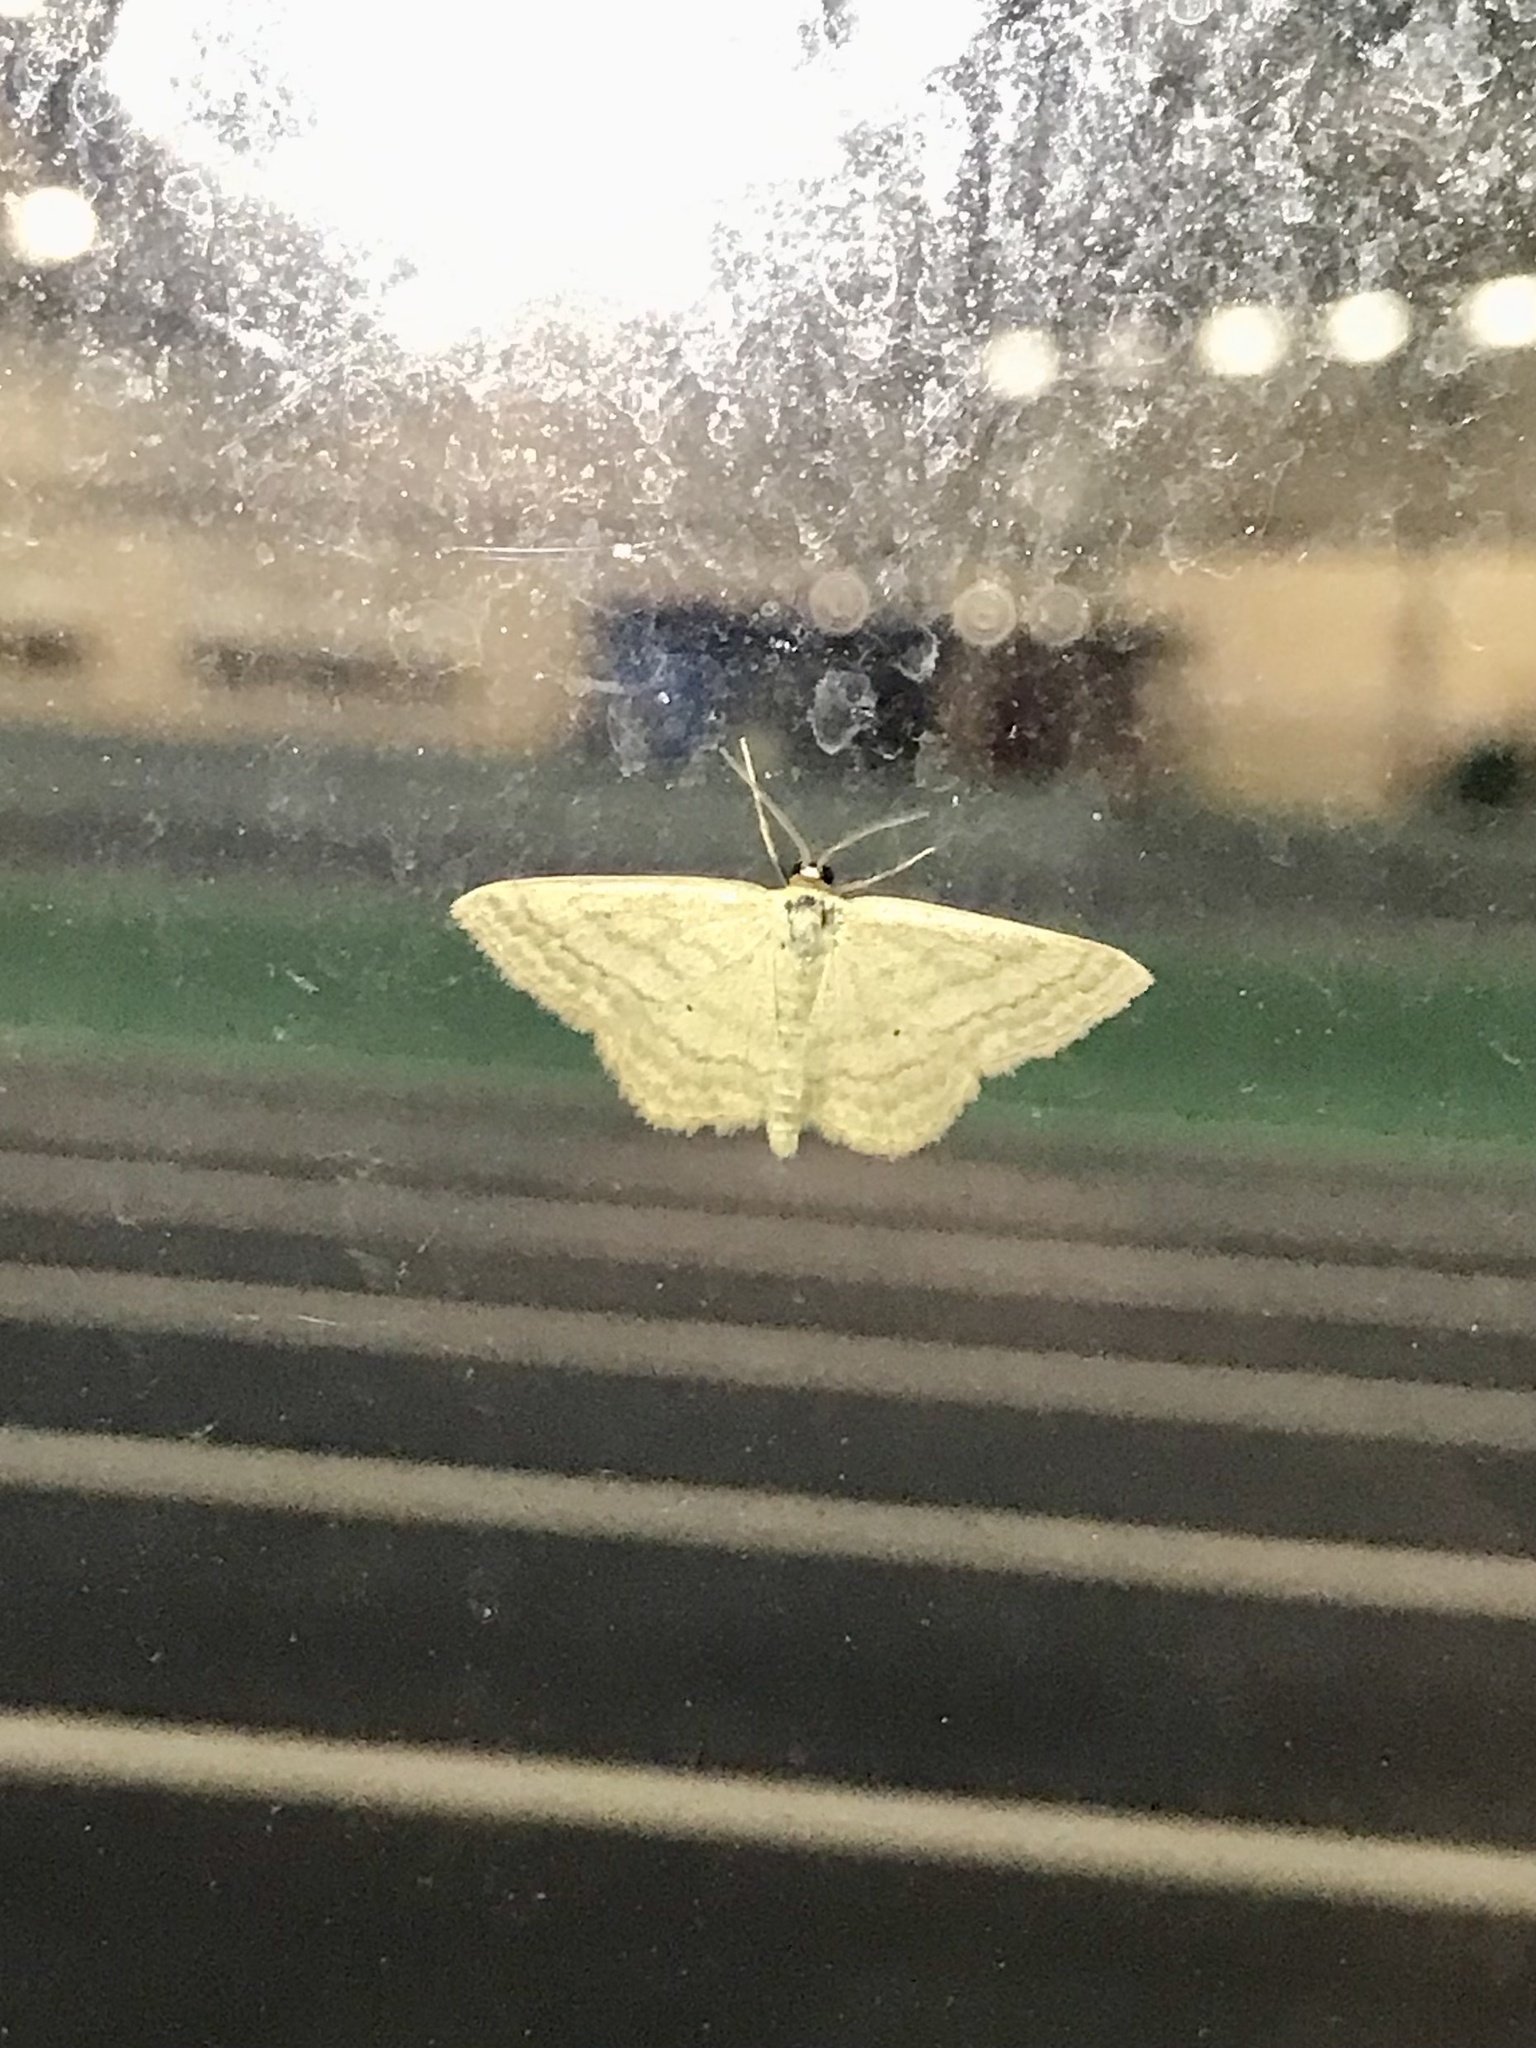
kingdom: Animalia
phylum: Arthropoda
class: Insecta
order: Lepidoptera
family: Geometridae
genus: Scopula
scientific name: Scopula inductata
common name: Soft-lined wave
